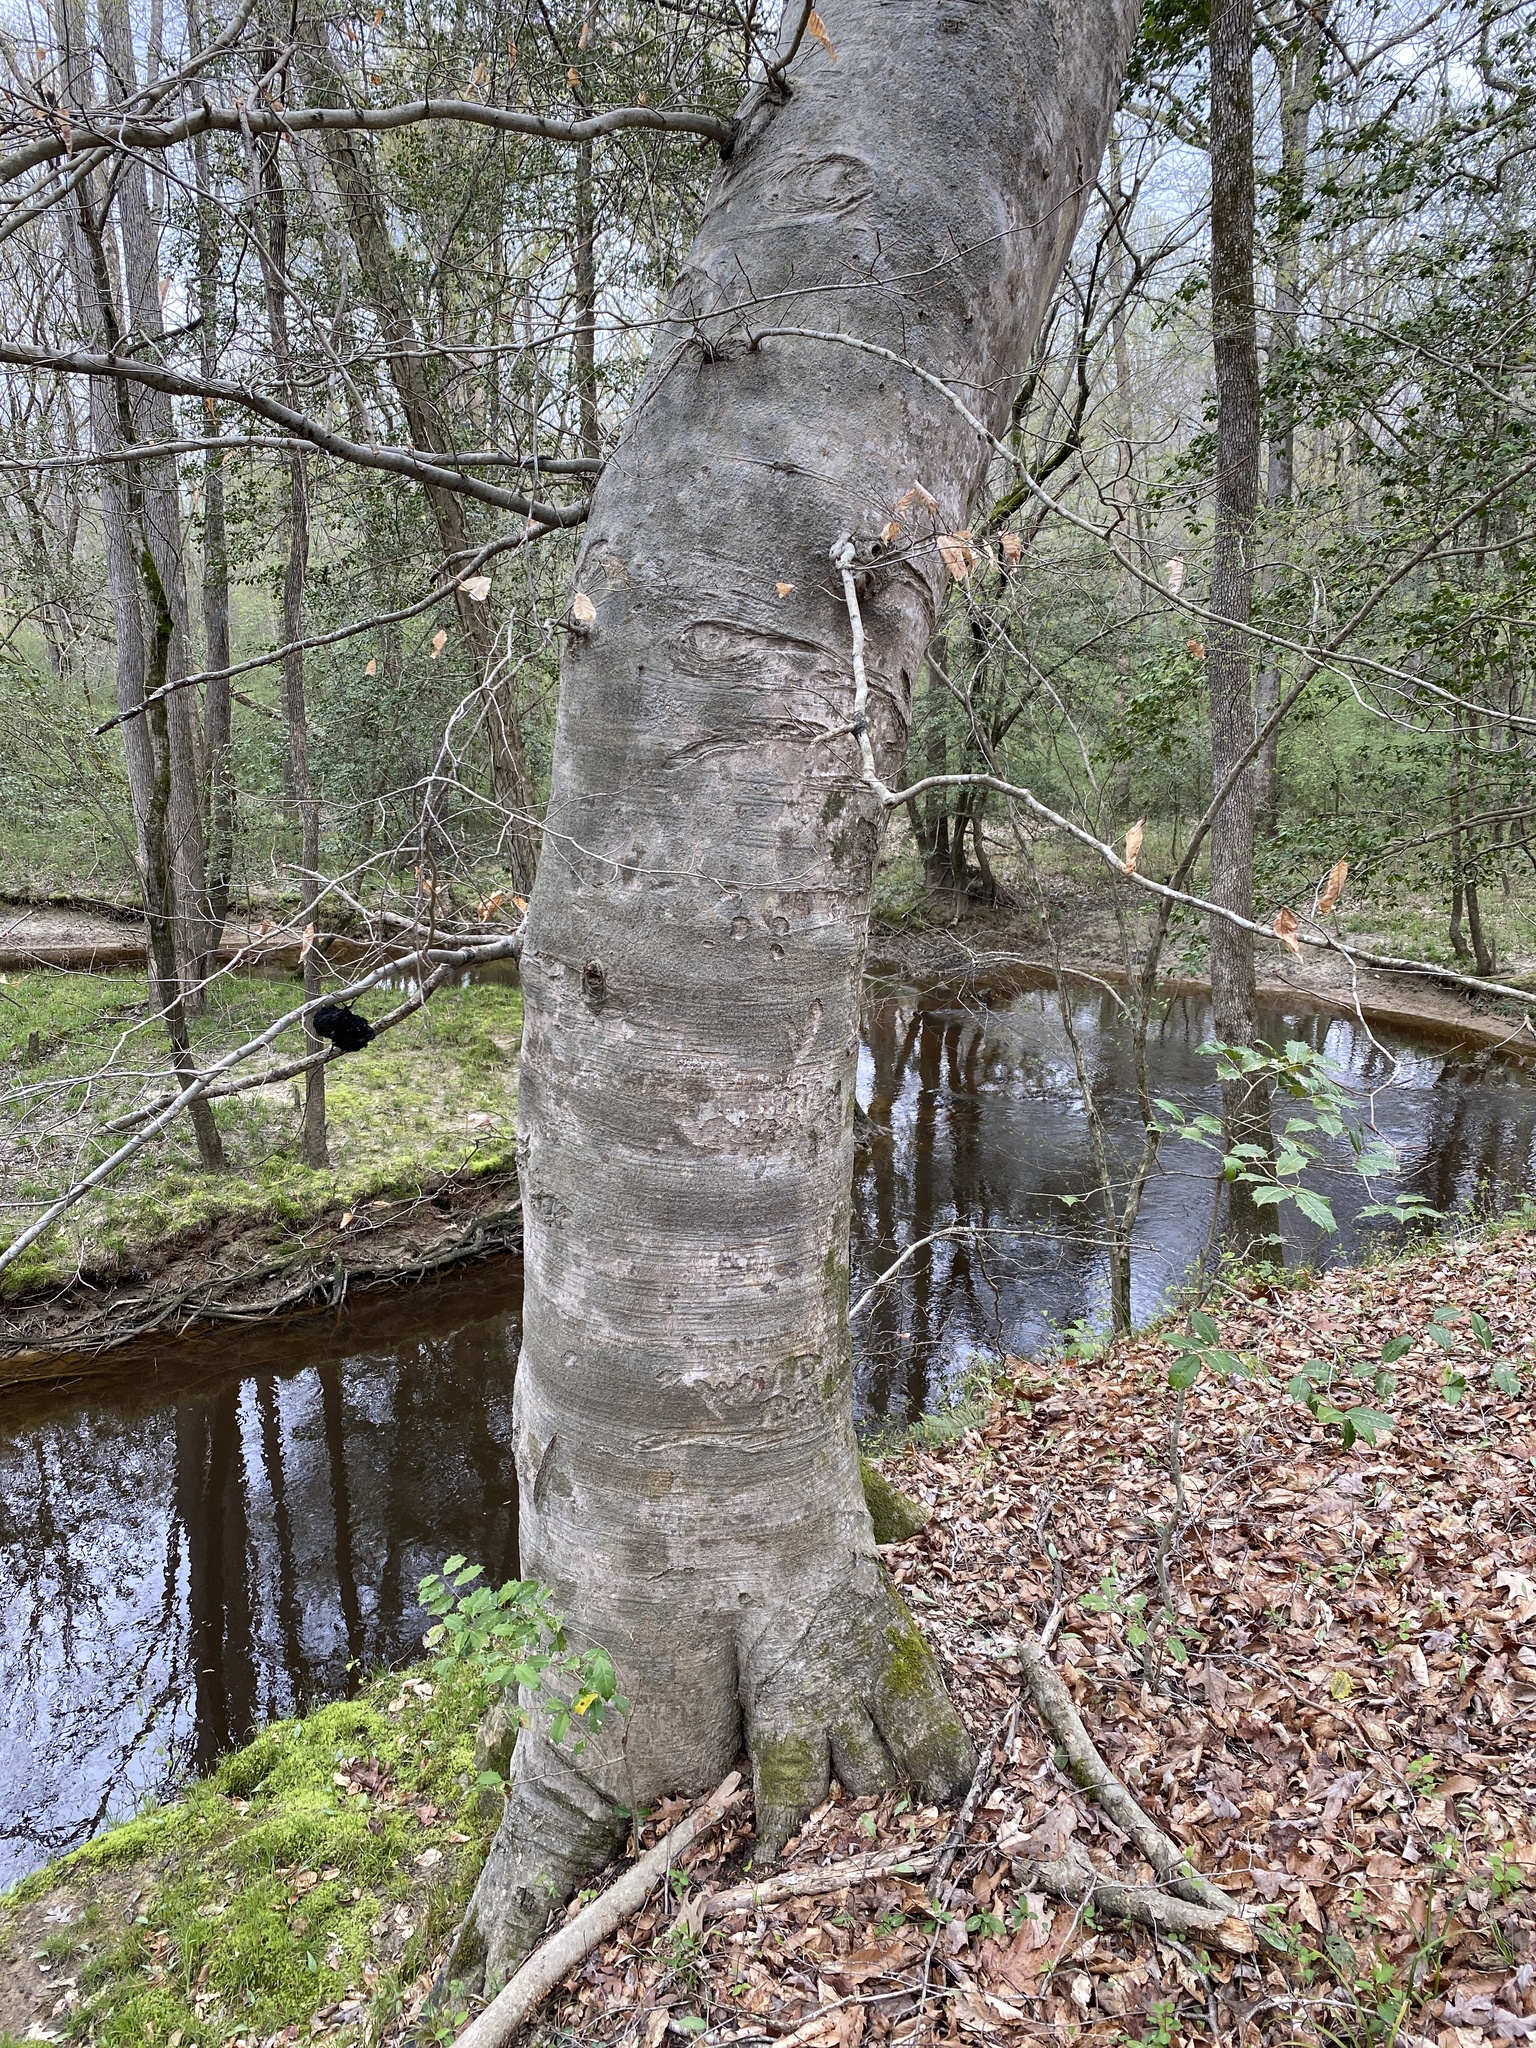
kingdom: Plantae
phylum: Tracheophyta
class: Magnoliopsida
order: Fagales
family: Fagaceae
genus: Fagus
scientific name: Fagus grandifolia
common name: American beech
